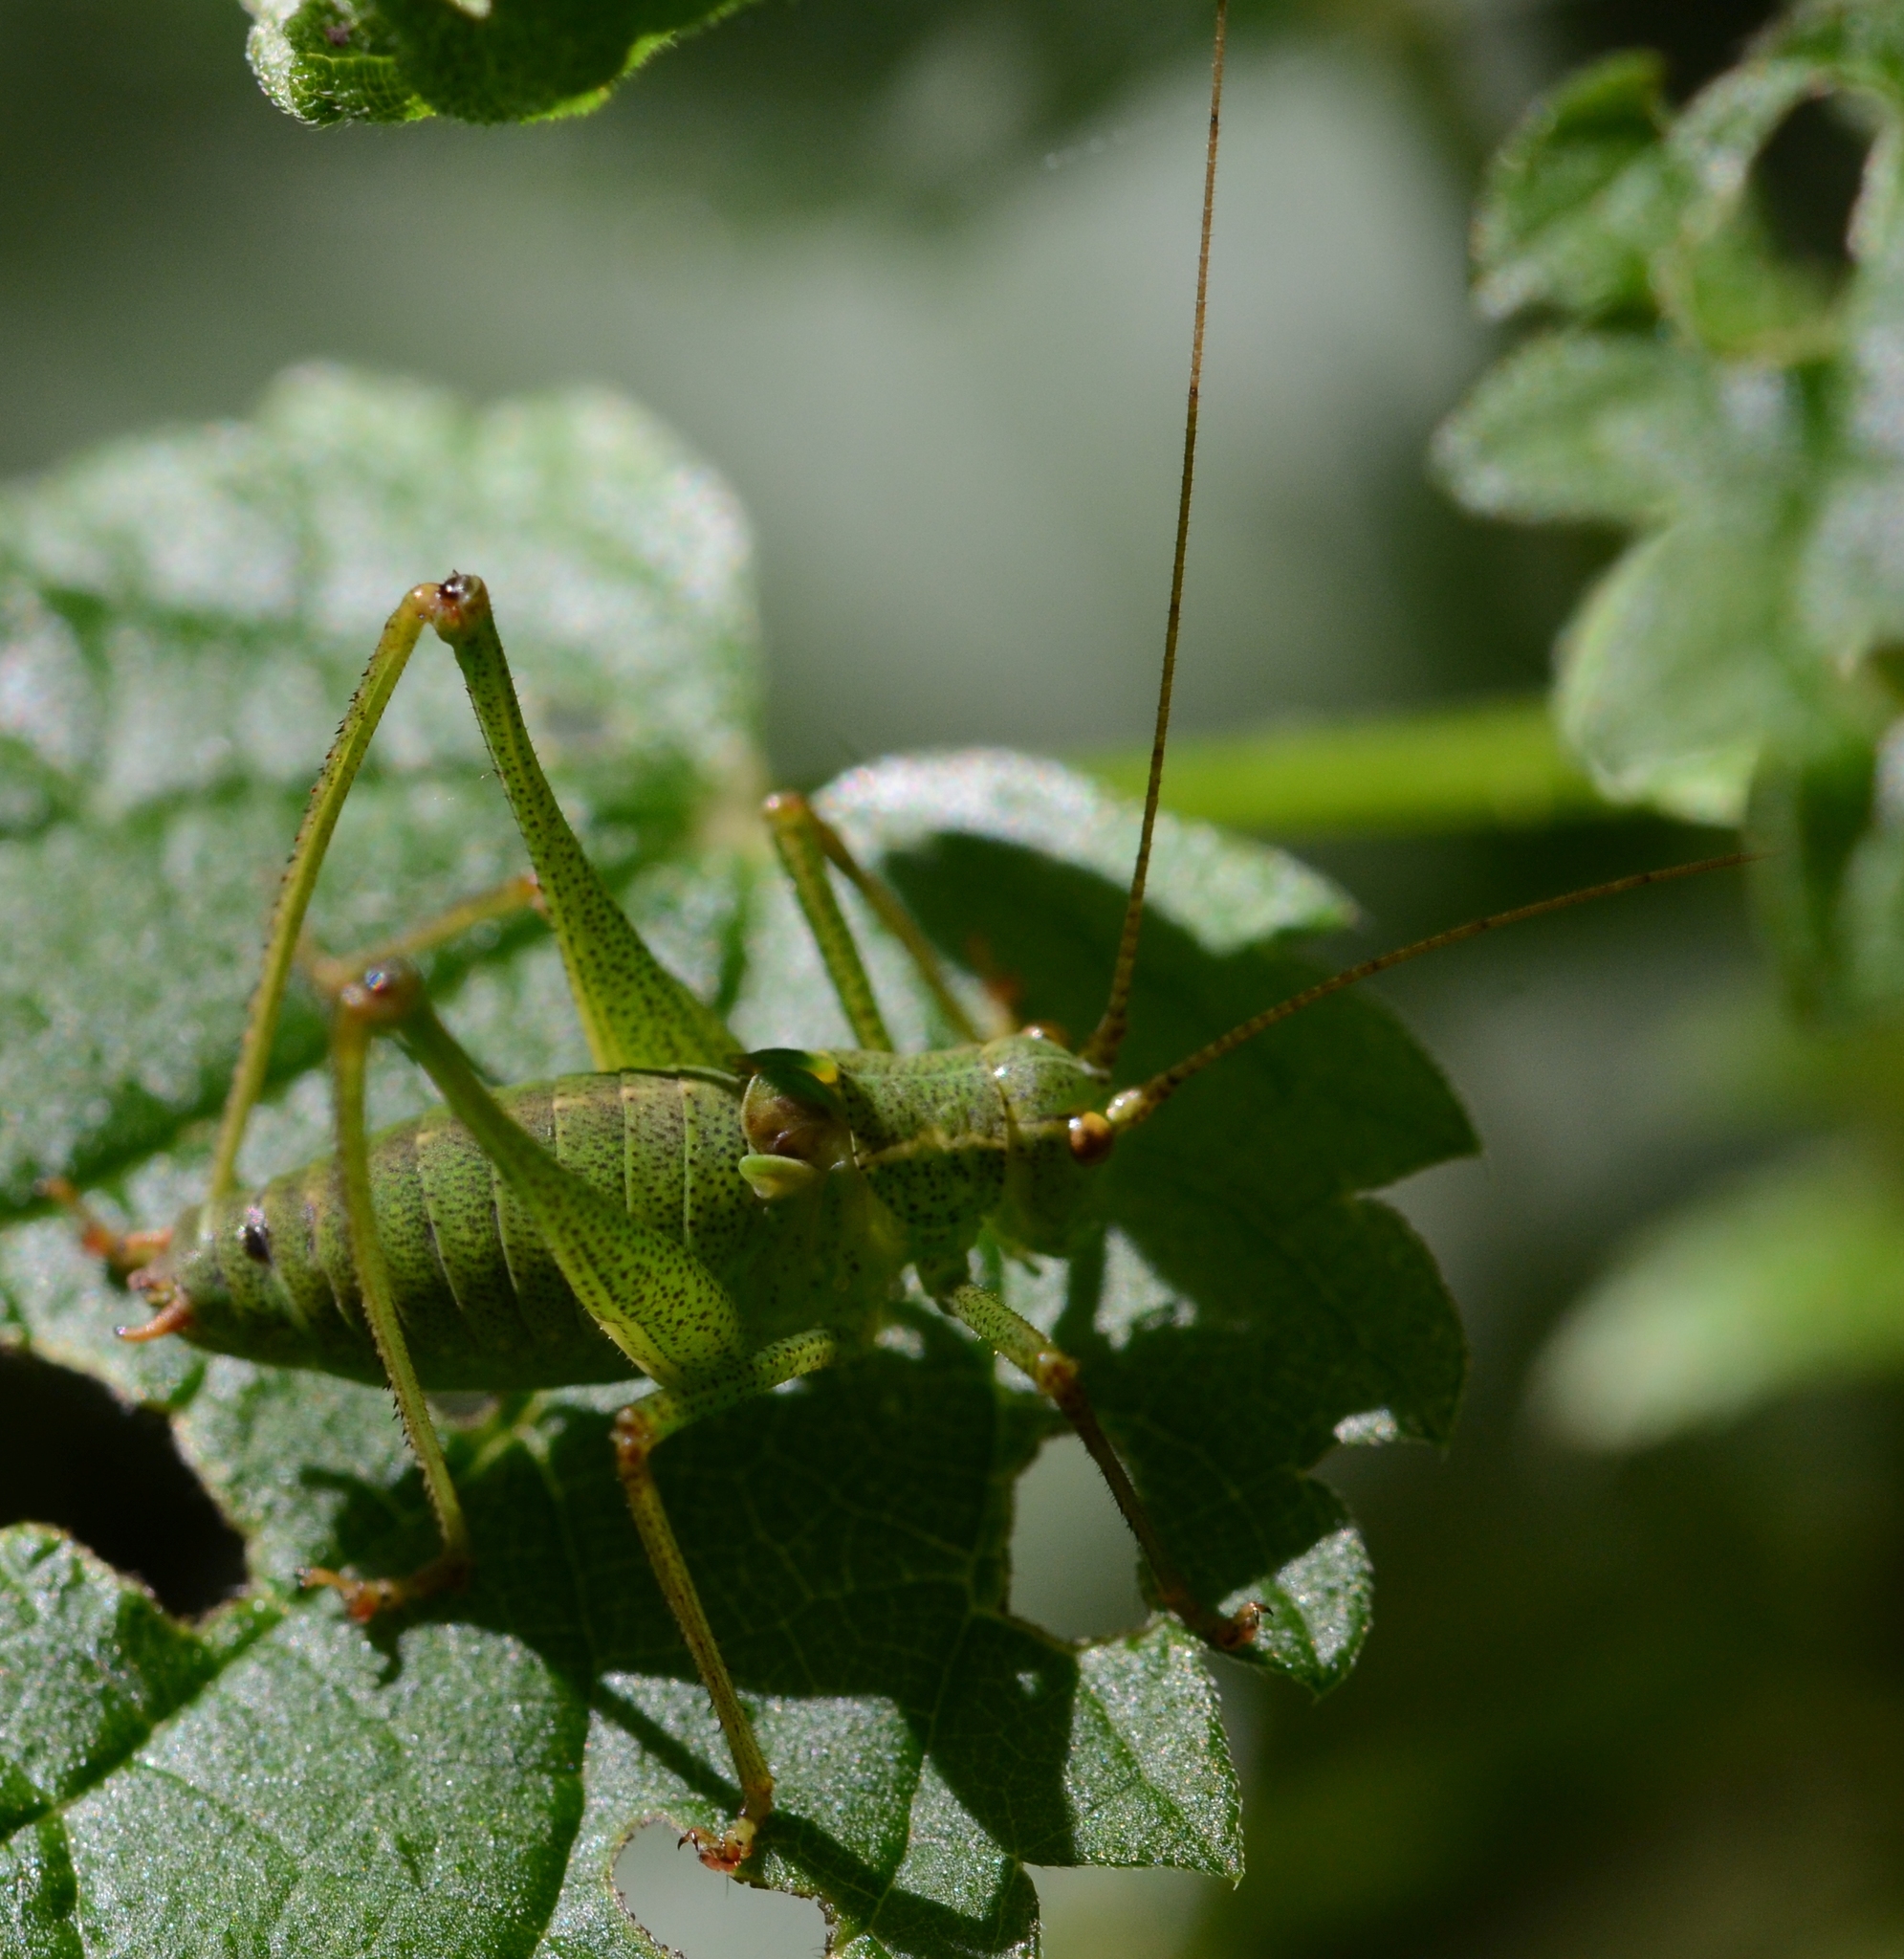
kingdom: Animalia
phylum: Arthropoda
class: Insecta
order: Orthoptera
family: Tettigoniidae
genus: Leptophyes
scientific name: Leptophyes punctatissima
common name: Speckled bush-cricket
